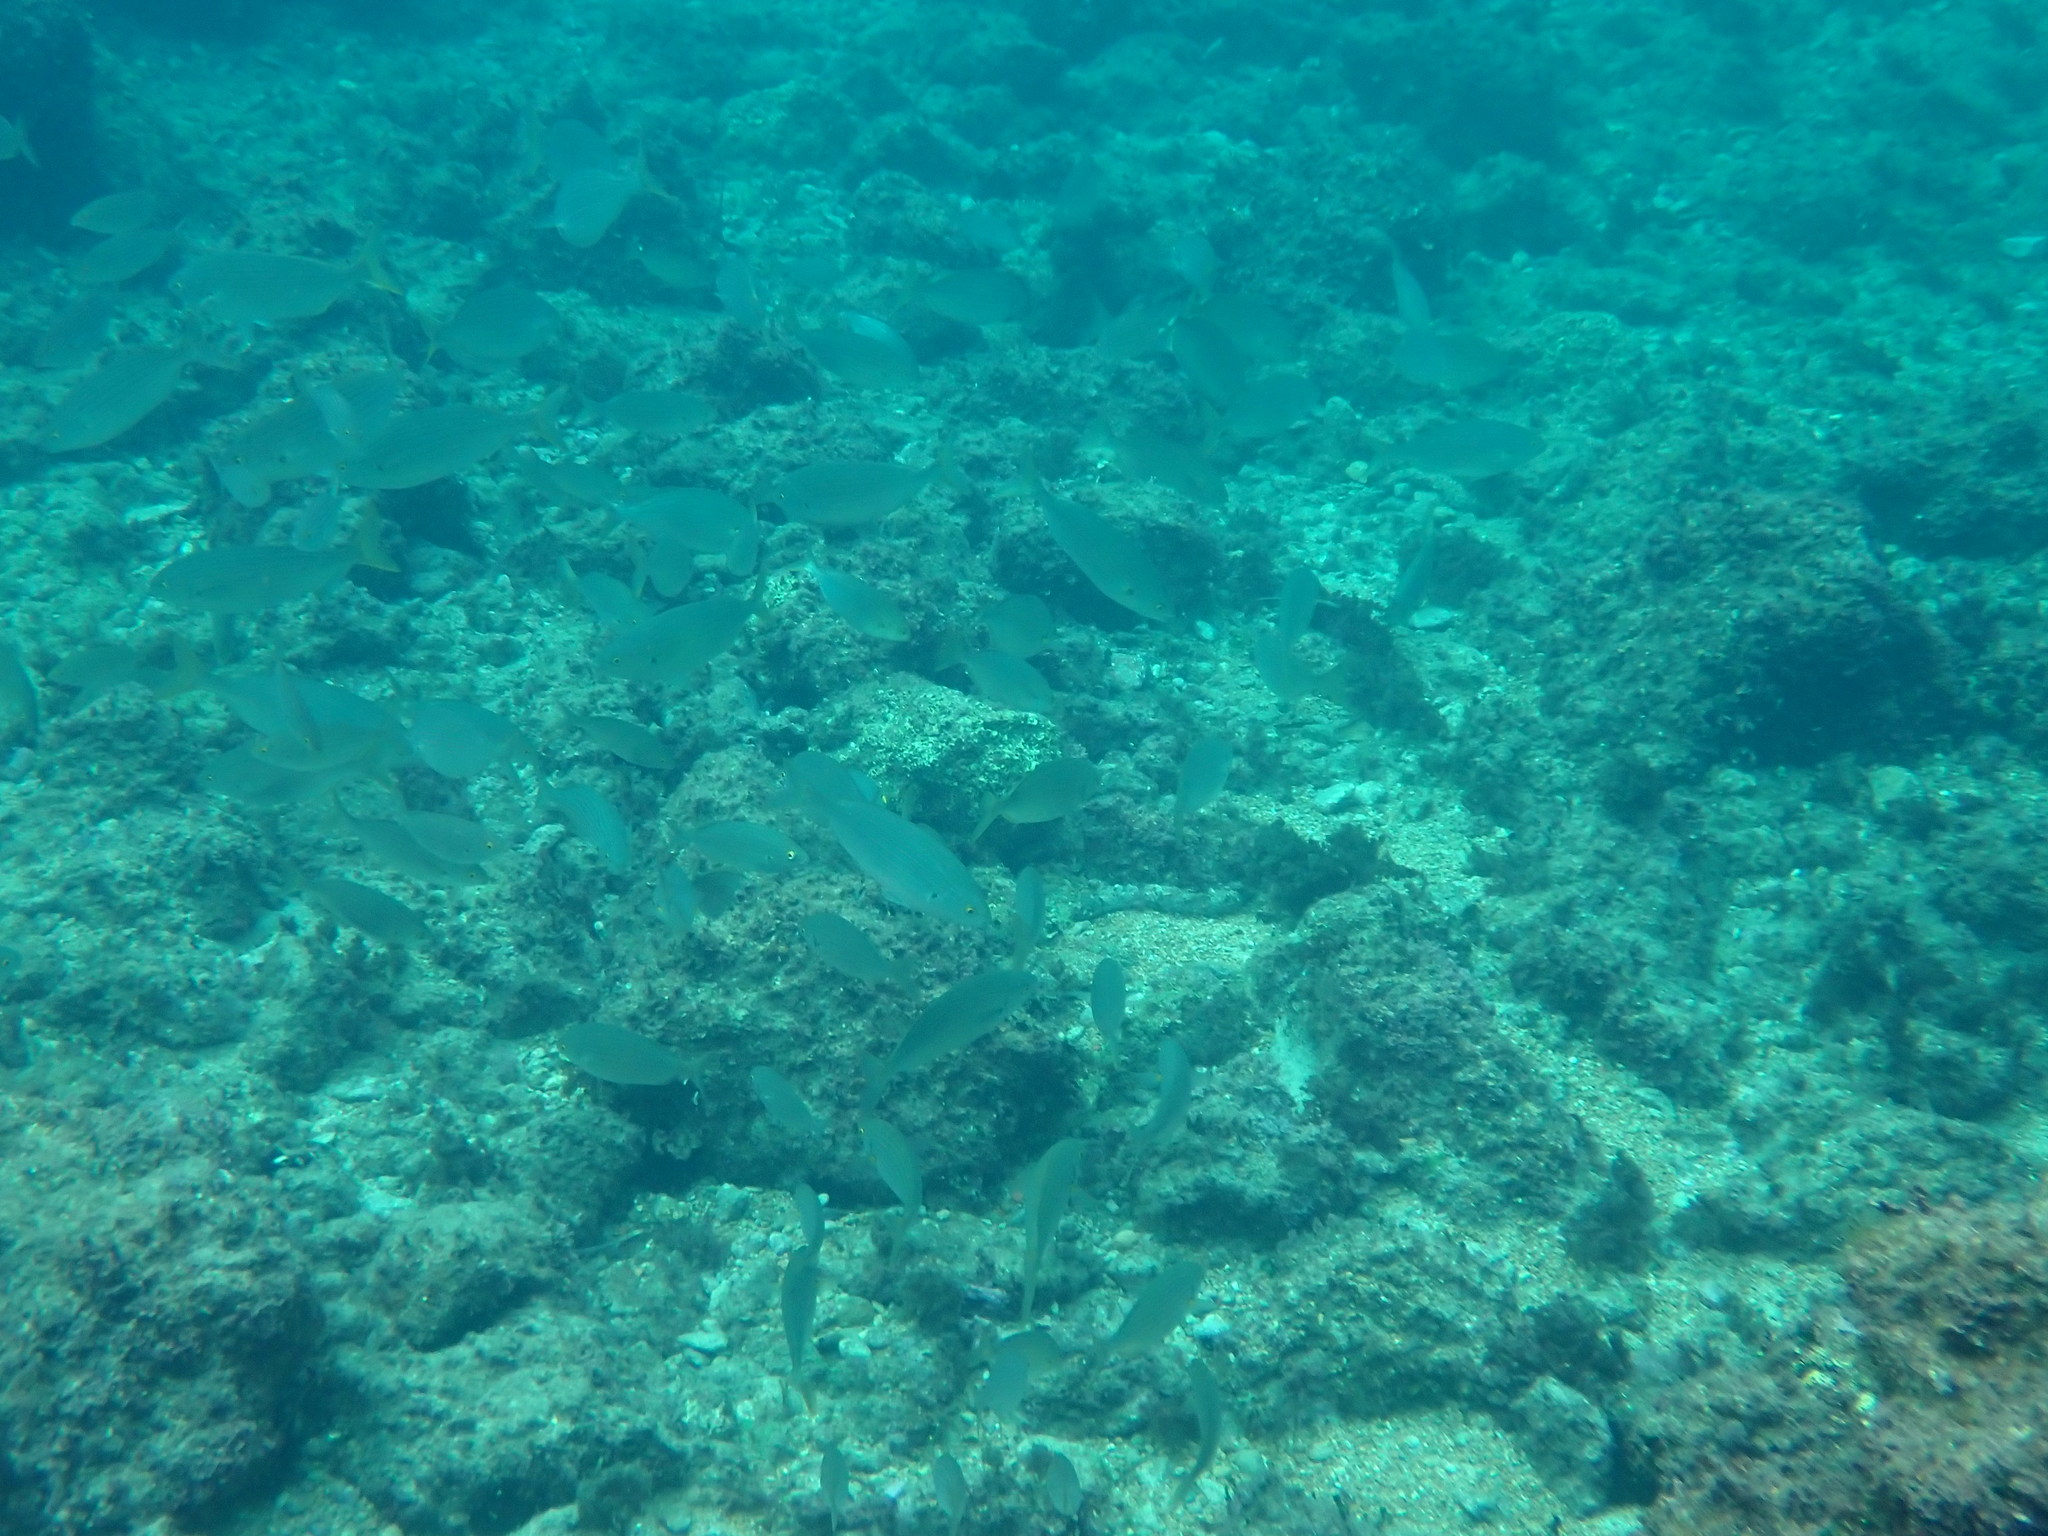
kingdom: Animalia
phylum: Chordata
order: Perciformes
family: Sparidae
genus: Sarpa
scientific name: Sarpa salpa
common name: Salema
